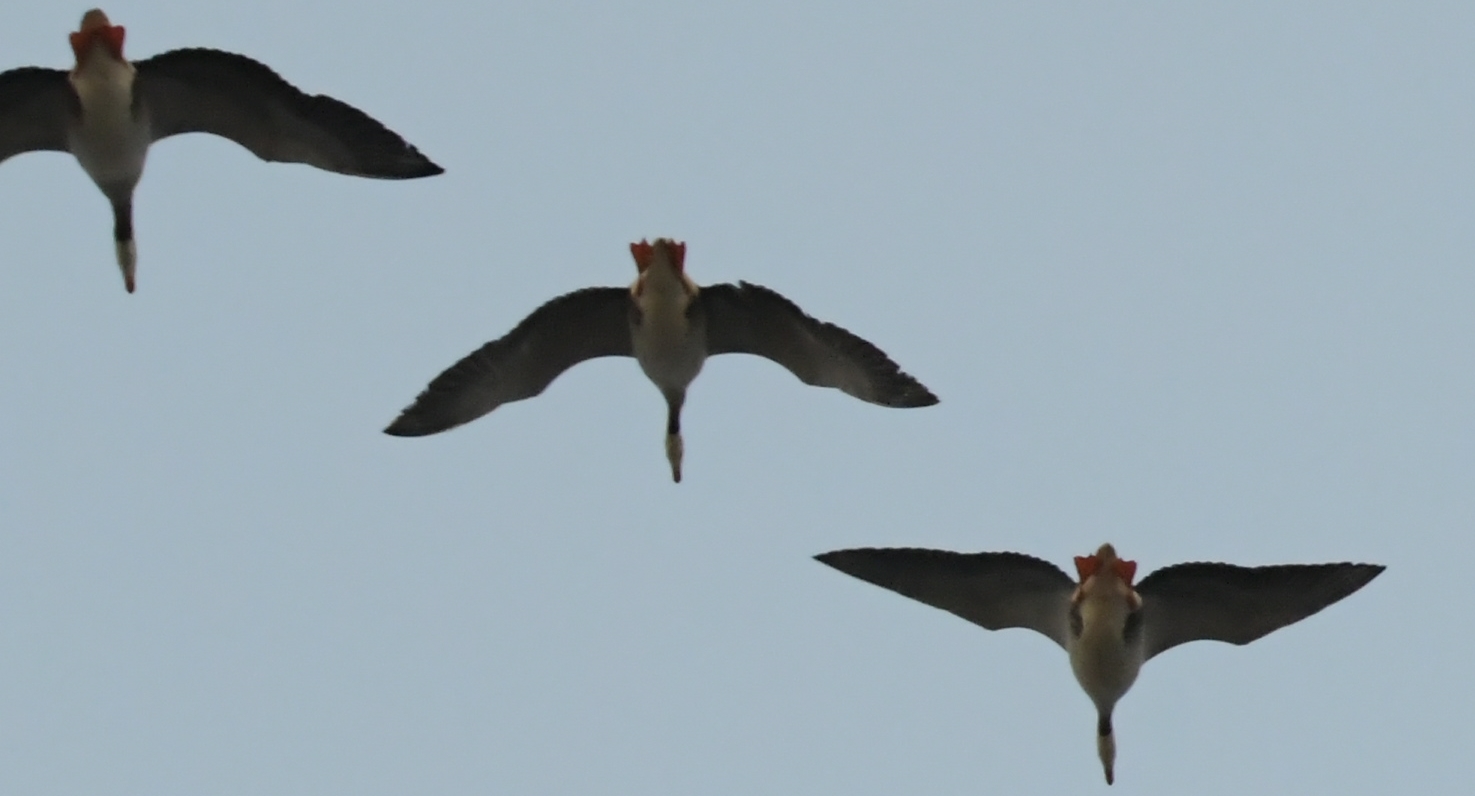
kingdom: Animalia
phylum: Chordata
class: Aves
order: Anseriformes
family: Anatidae
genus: Anser
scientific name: Anser indicus
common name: Bar-headed goose
